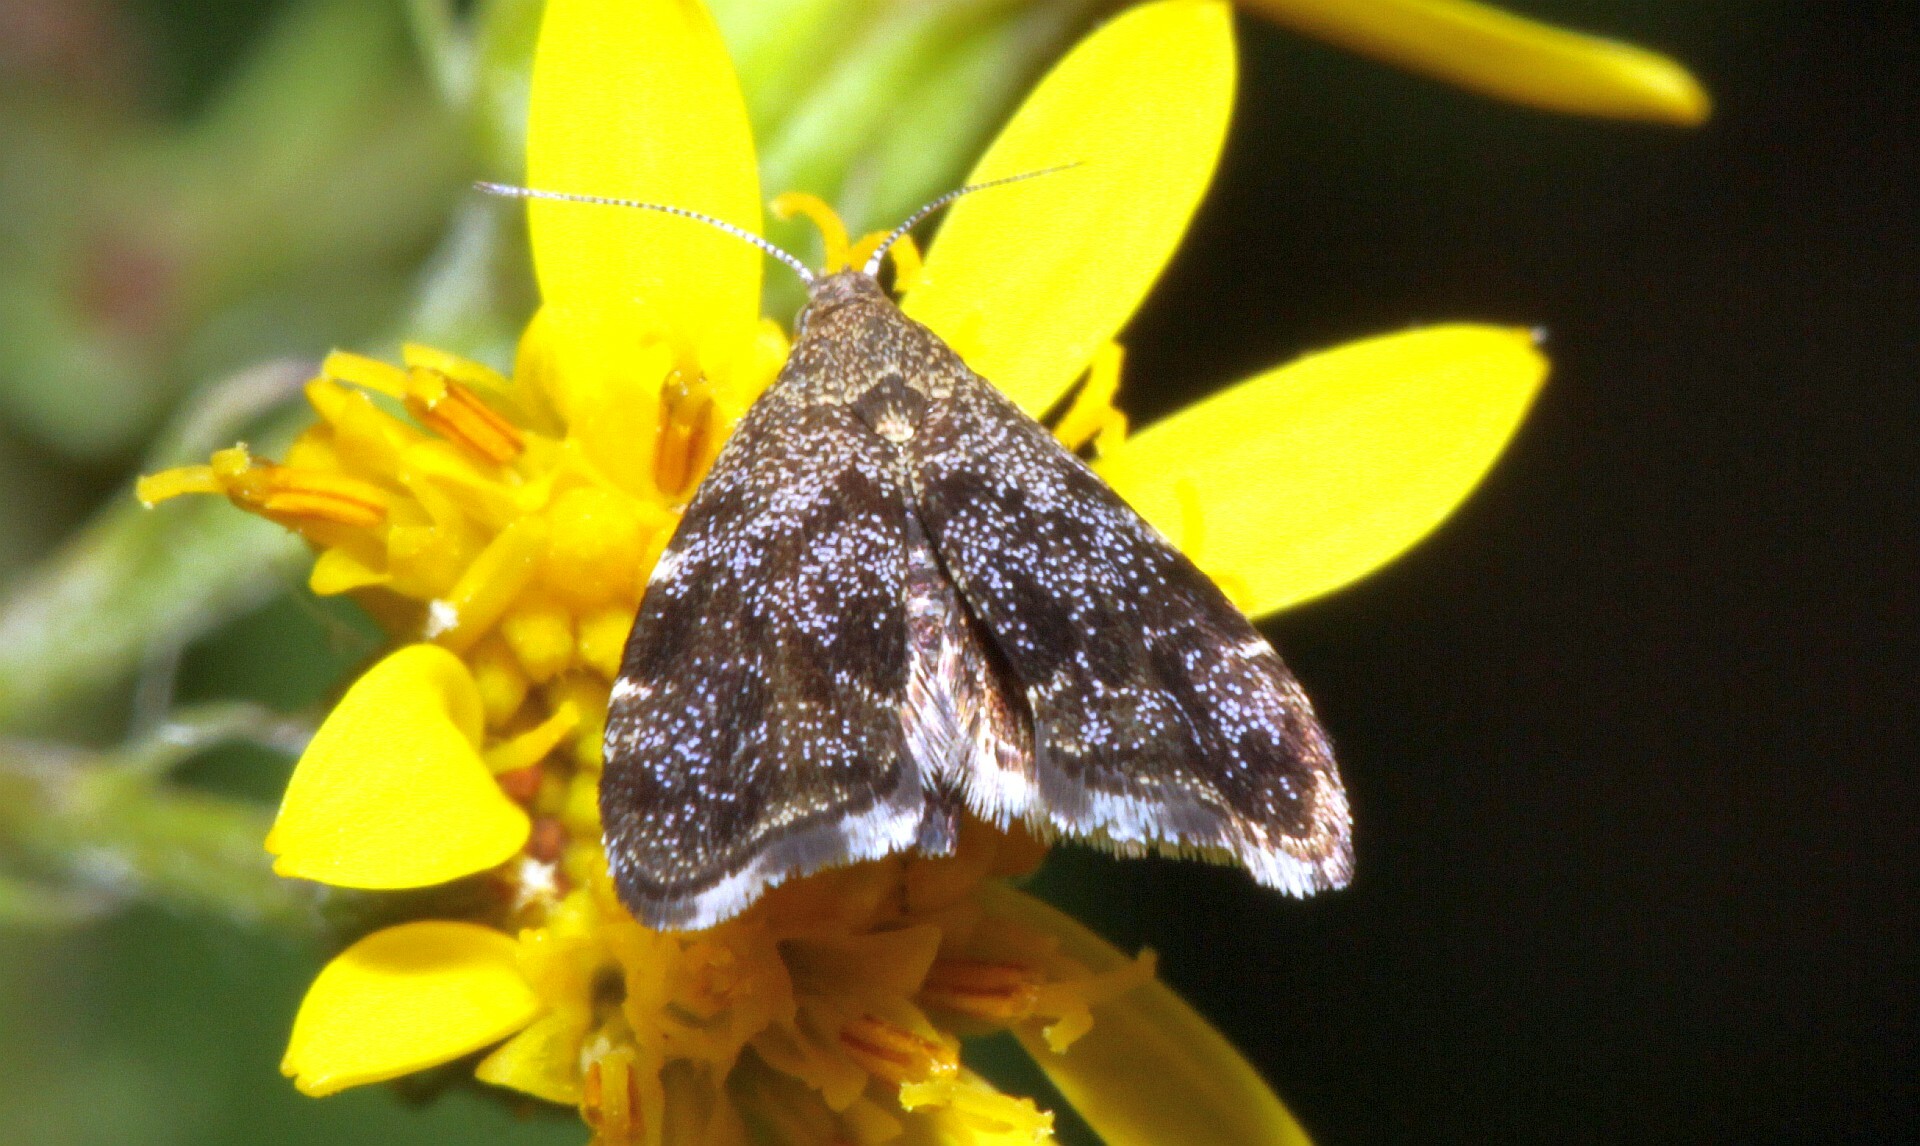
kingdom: Animalia
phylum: Arthropoda
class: Insecta
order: Lepidoptera
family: Choreutidae
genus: Anthophila
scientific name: Anthophila fabriciana
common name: Nettle-tap
